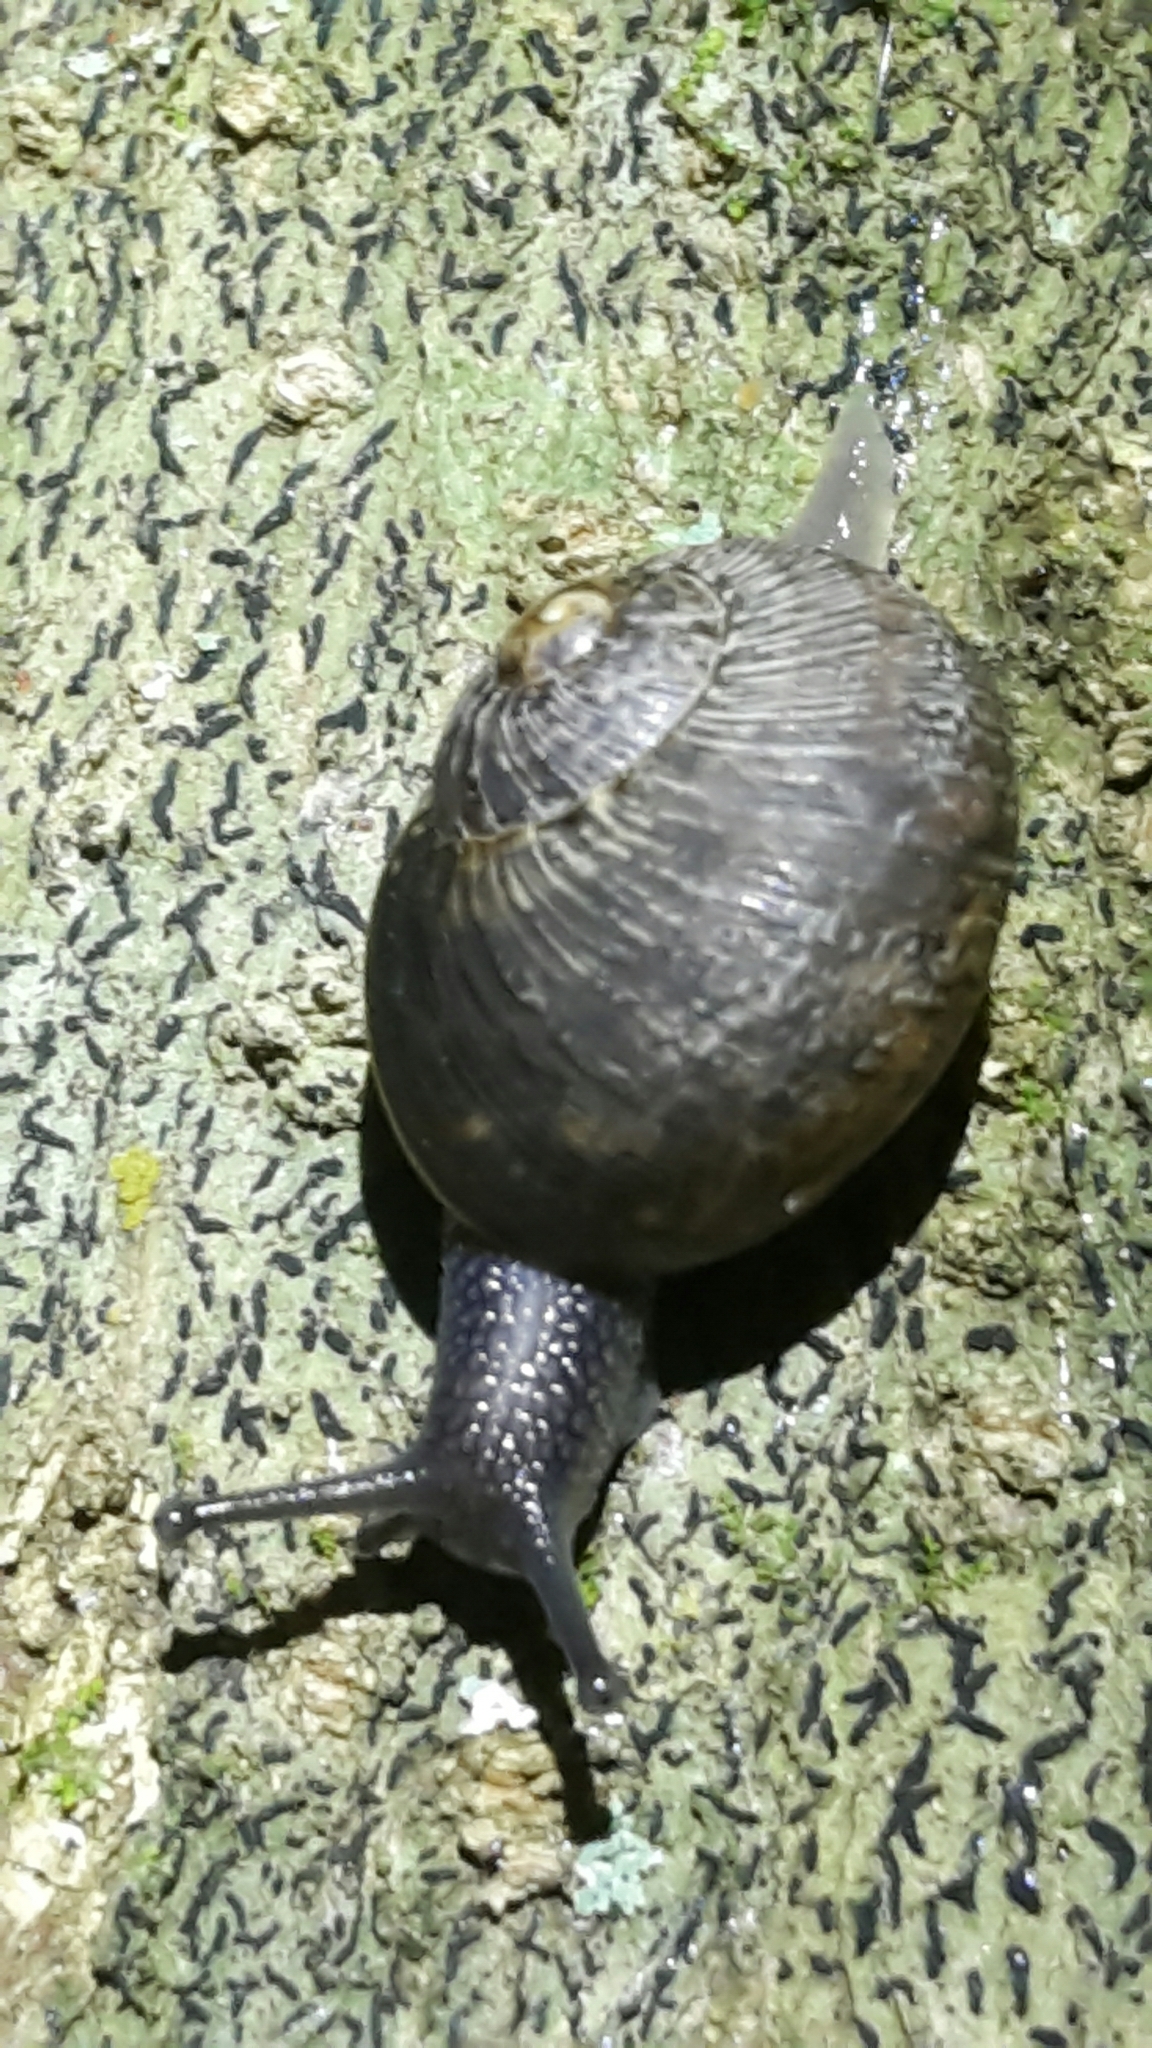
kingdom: Animalia
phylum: Mollusca
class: Gastropoda
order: Stylommatophora
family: Helicidae
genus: Cornu
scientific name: Cornu aspersum
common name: Brown garden snail
